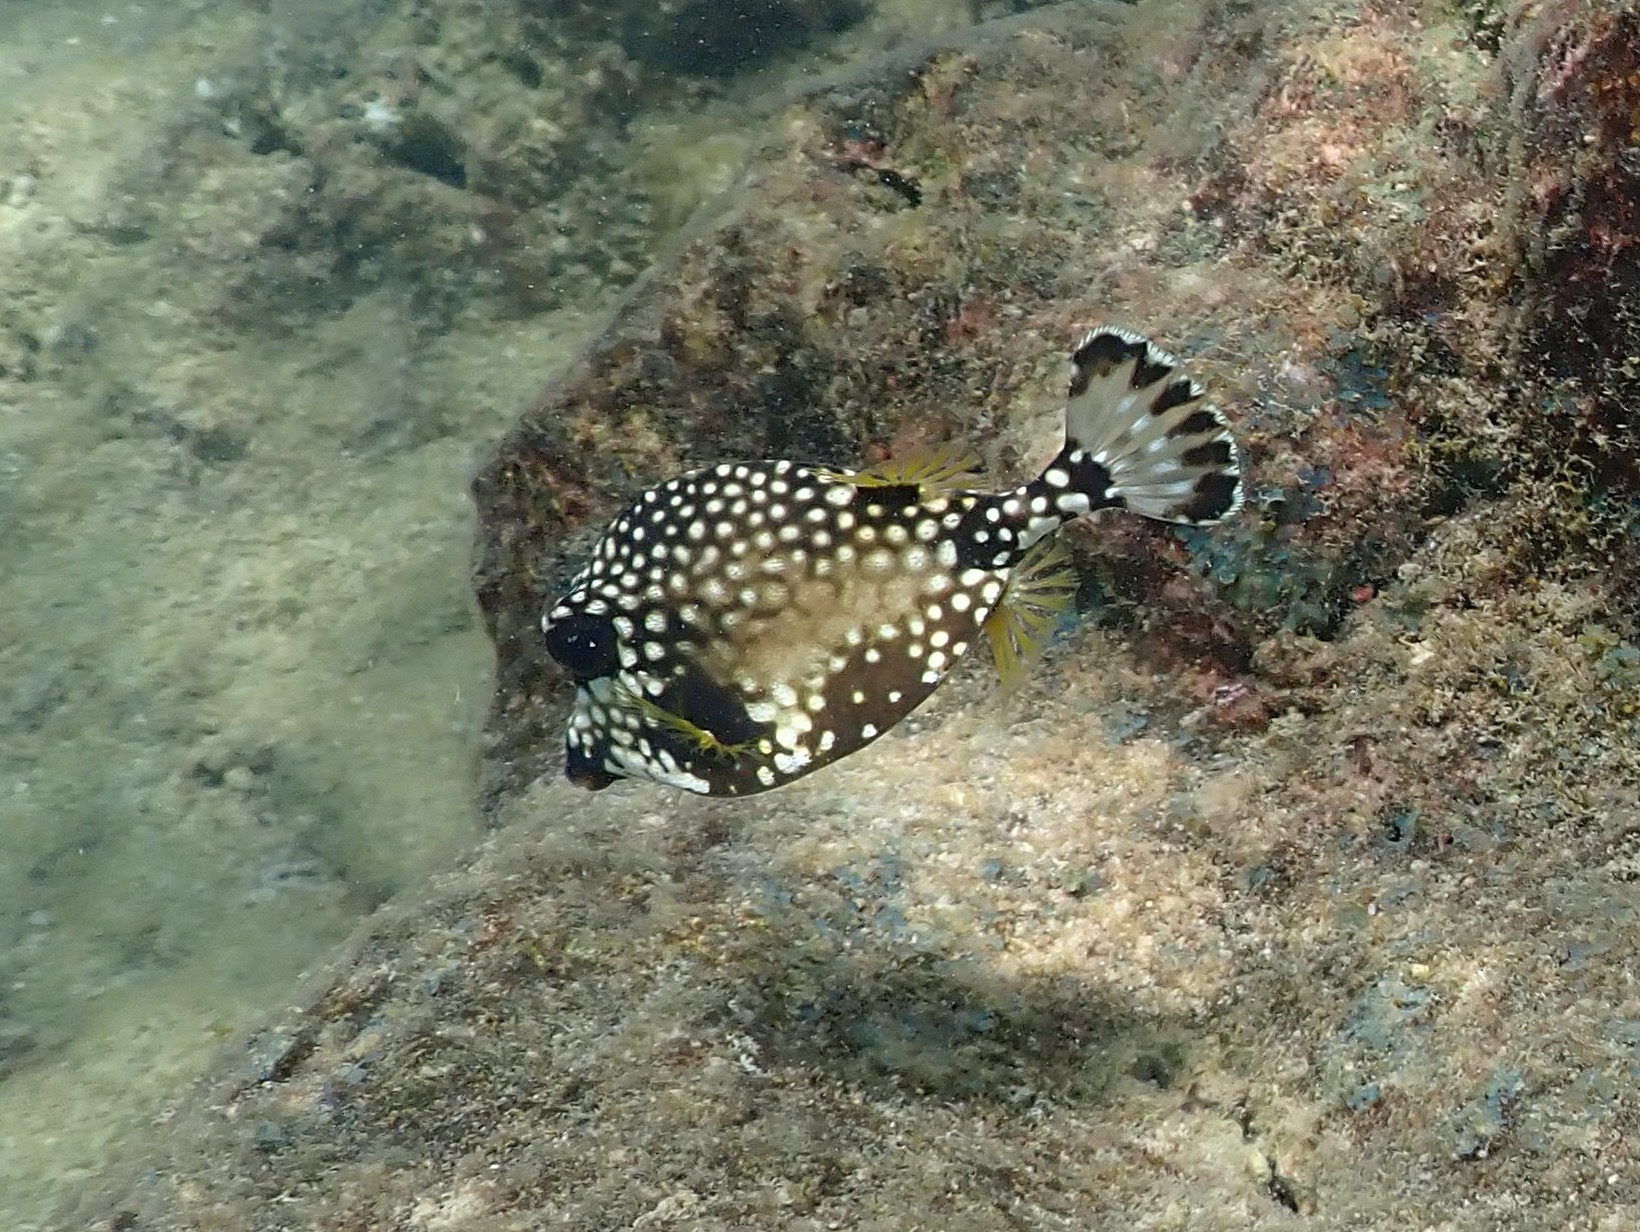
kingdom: Animalia
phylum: Chordata
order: Tetraodontiformes
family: Ostraciidae
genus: Lactophrys
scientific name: Lactophrys triqueter
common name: Smooth trunkfish
